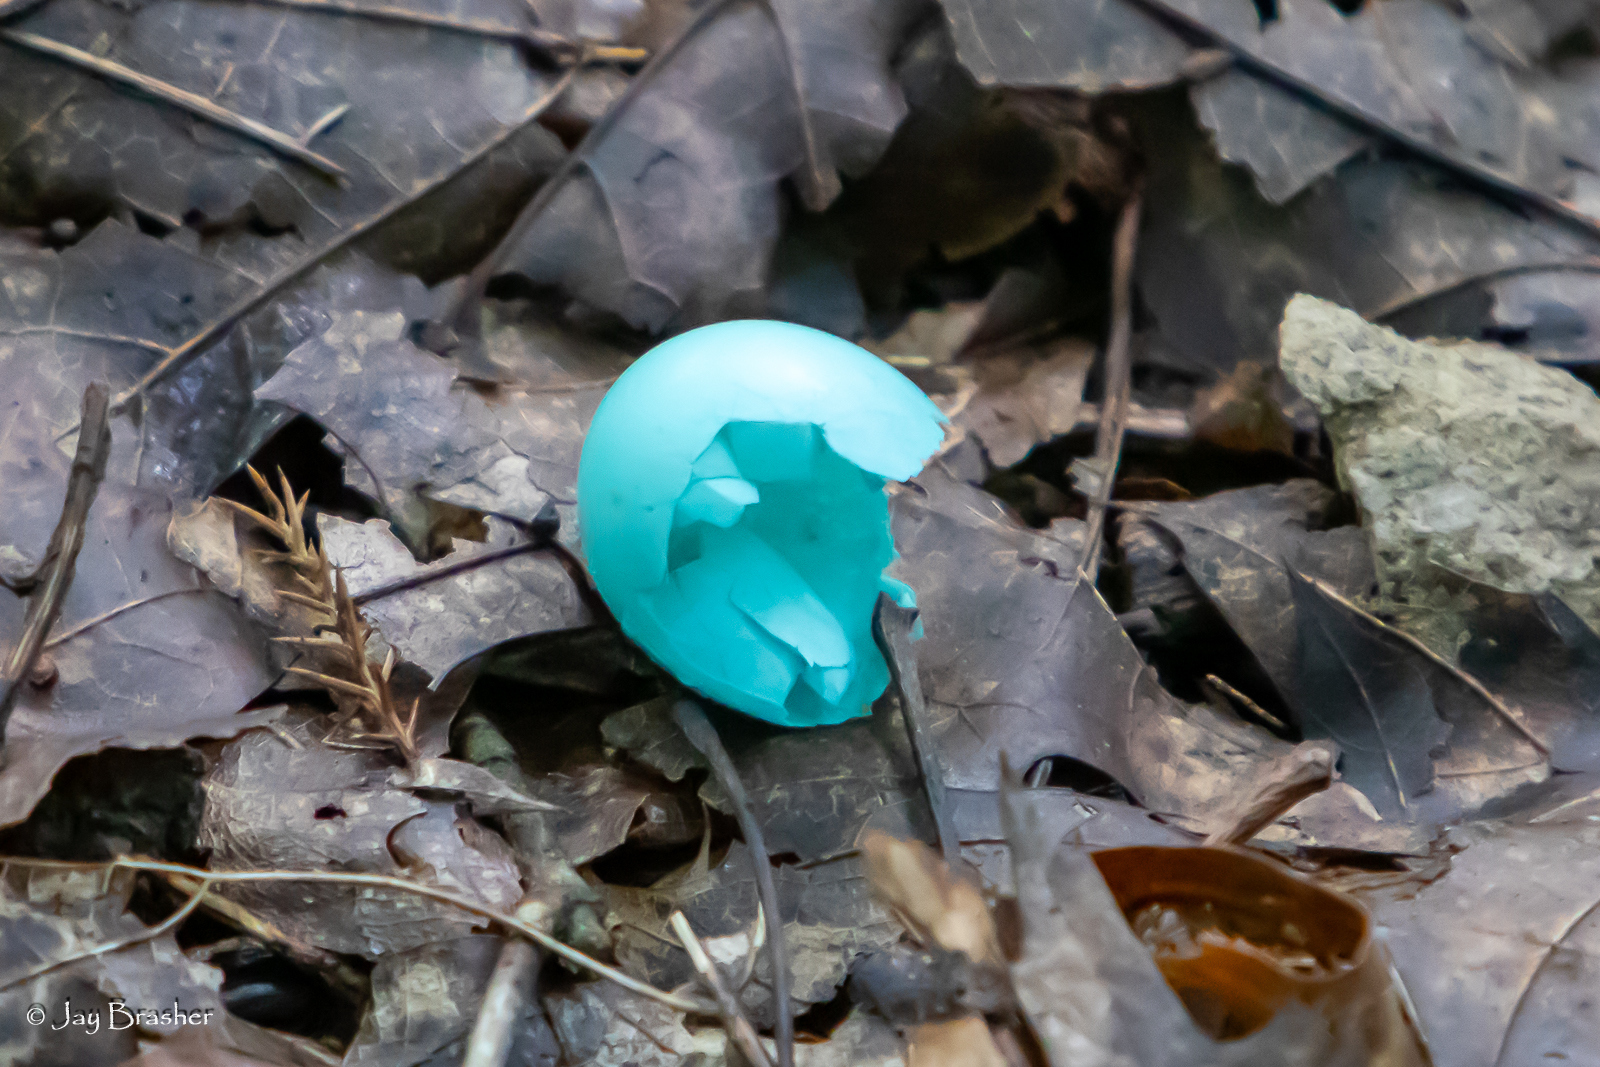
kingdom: Animalia
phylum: Chordata
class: Aves
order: Passeriformes
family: Turdidae
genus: Turdus
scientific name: Turdus migratorius
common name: American robin
